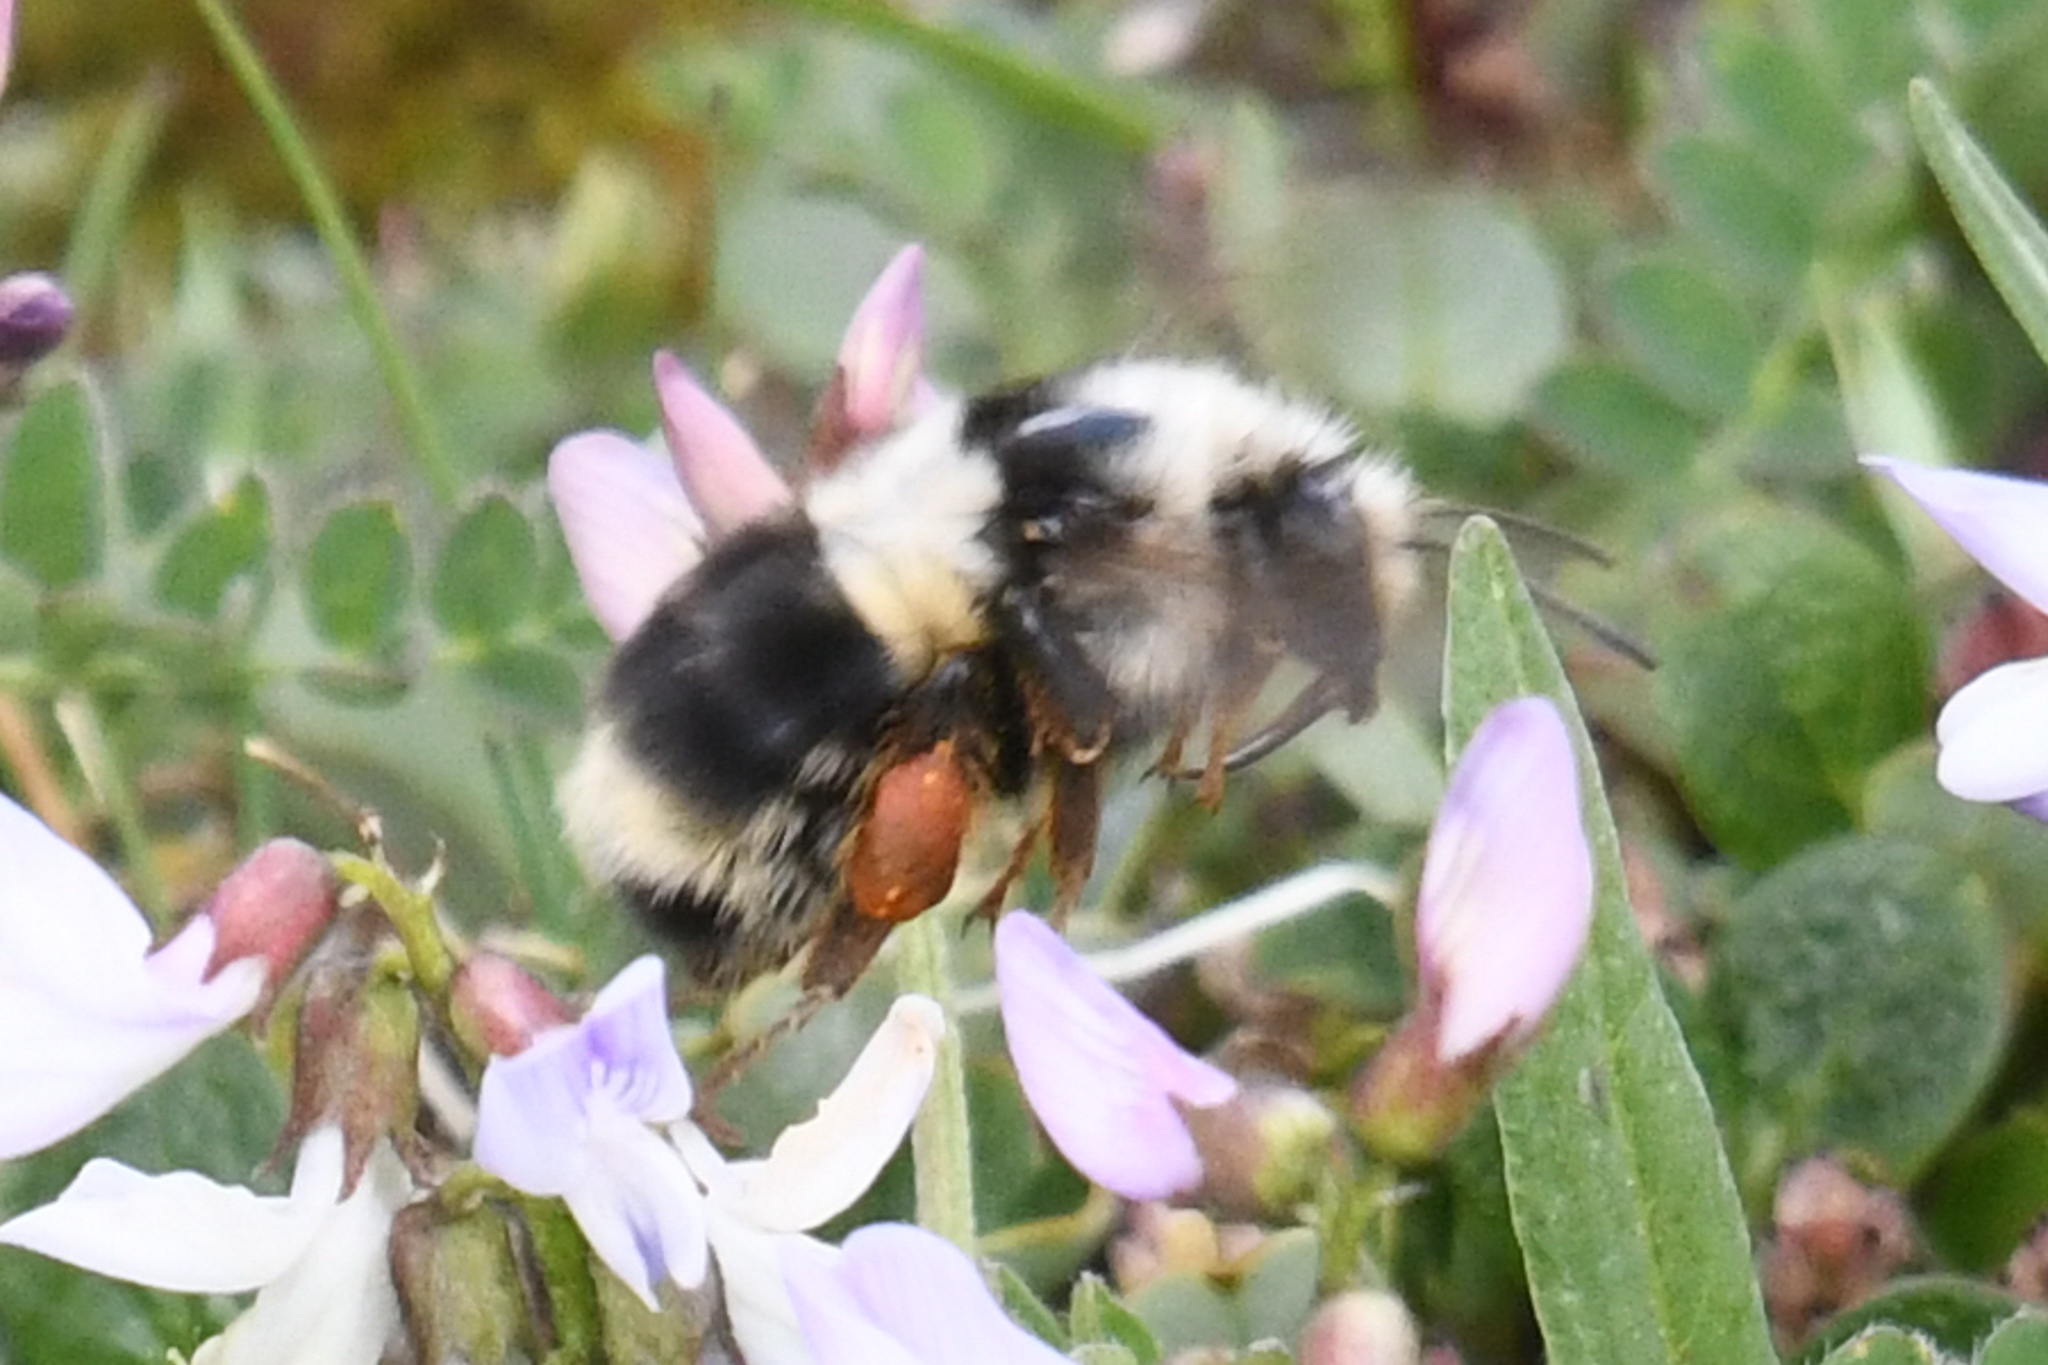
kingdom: Animalia
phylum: Arthropoda
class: Insecta
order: Hymenoptera
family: Apidae
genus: Bombus
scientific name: Bombus vancouverensis
